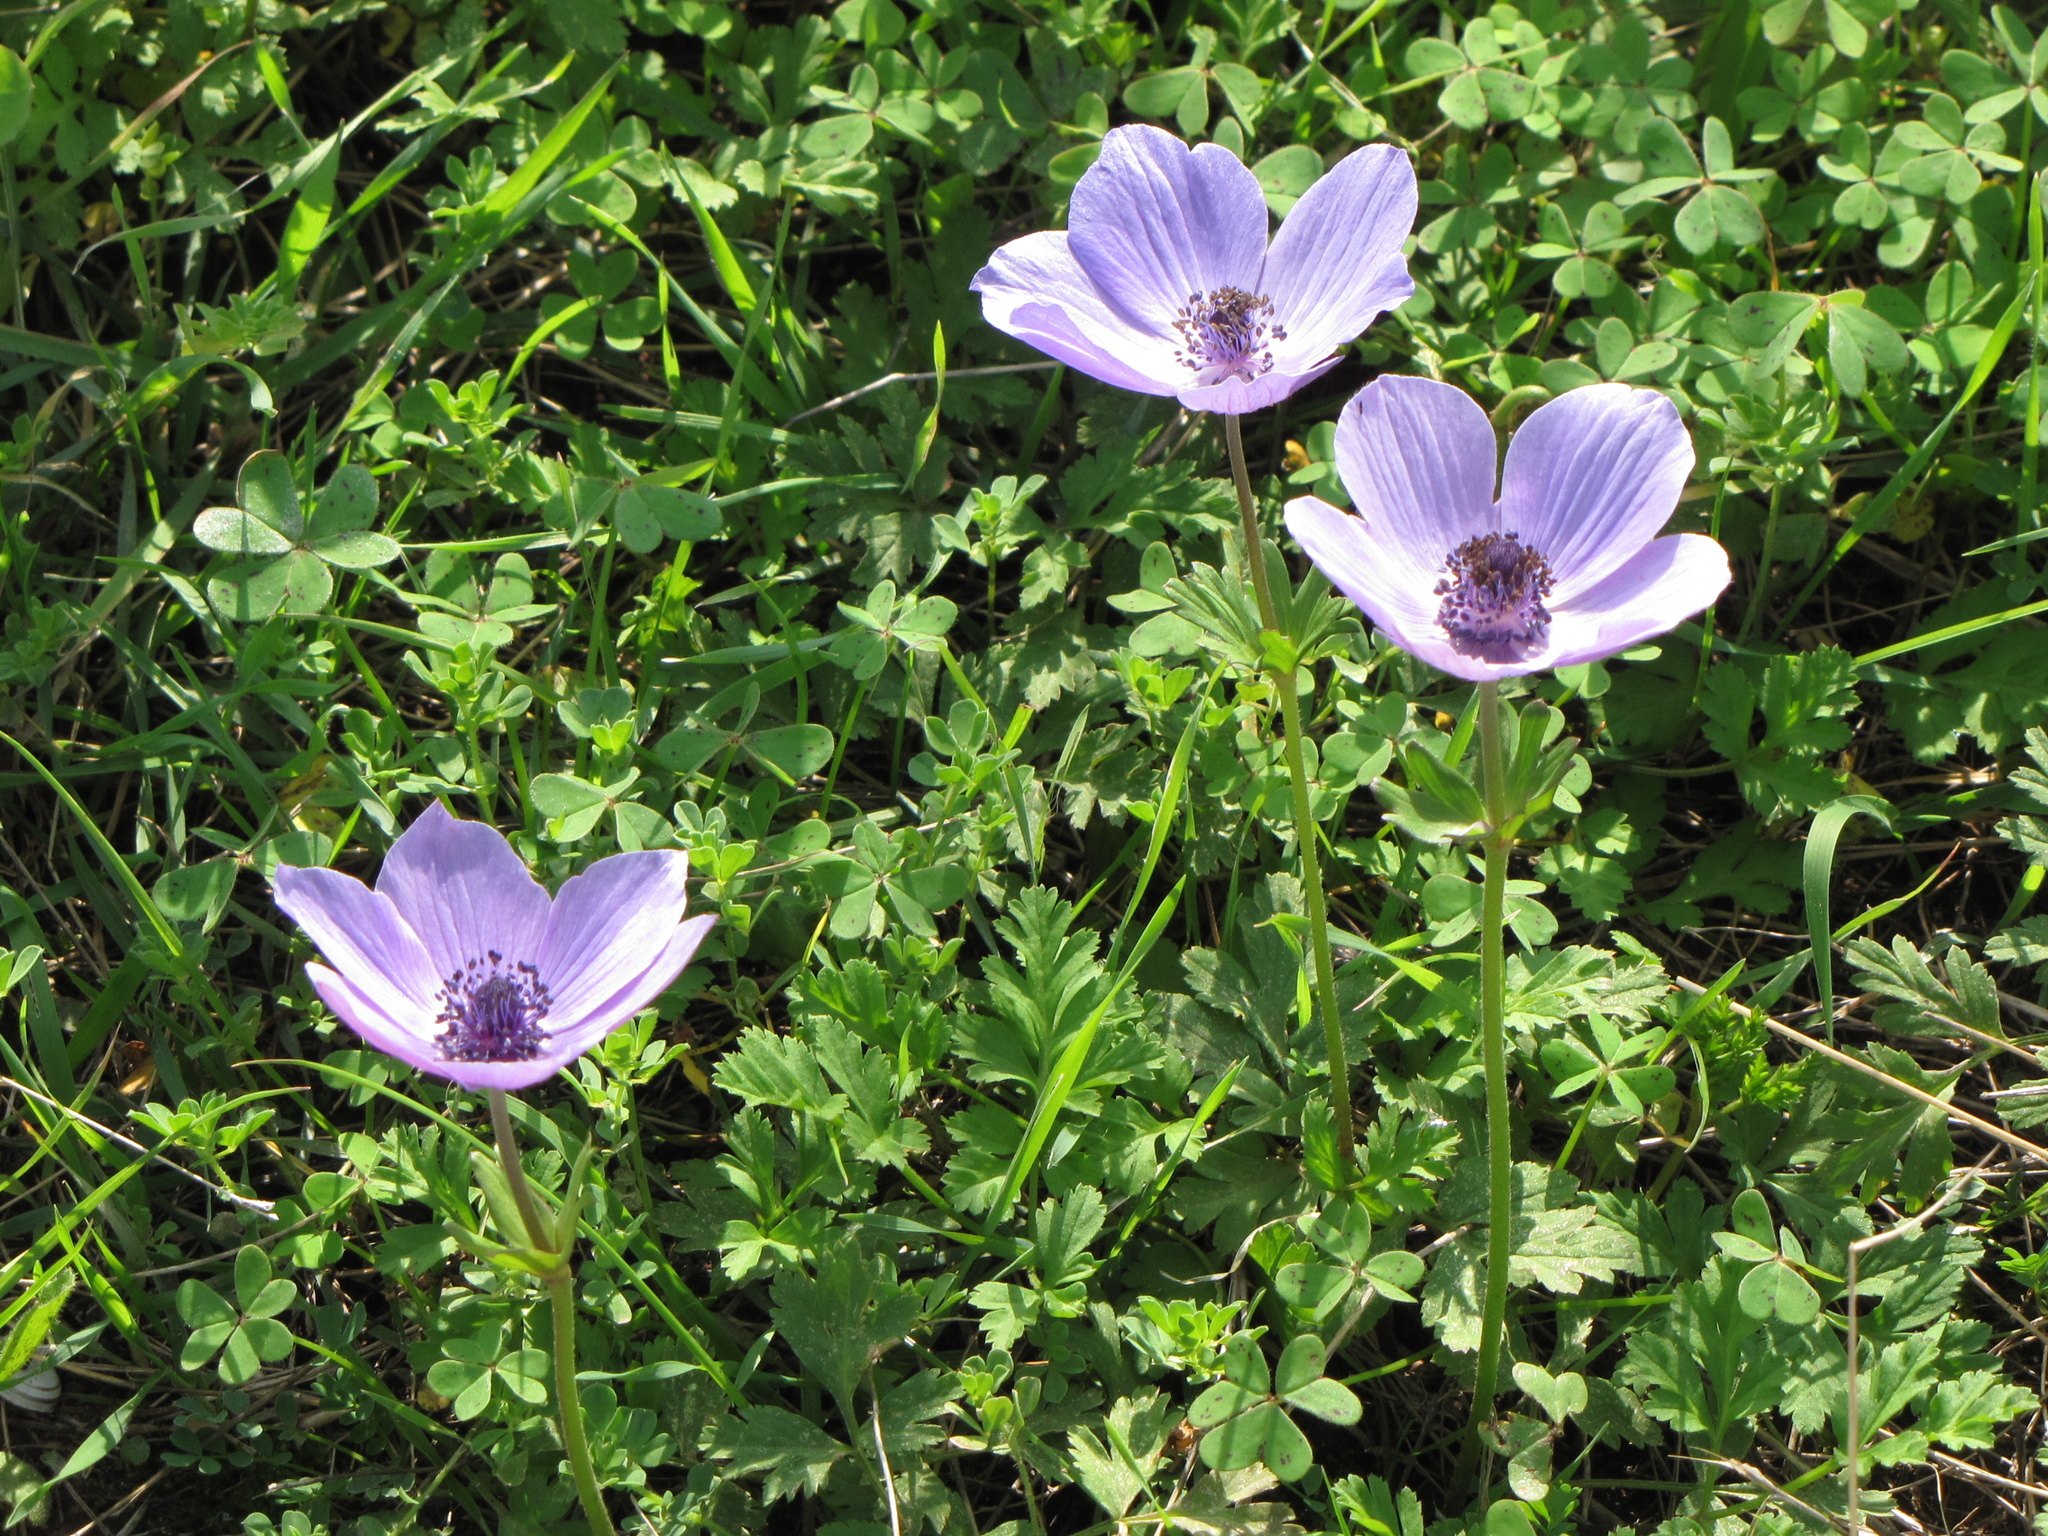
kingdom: Plantae
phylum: Tracheophyta
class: Magnoliopsida
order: Ranunculales
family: Ranunculaceae
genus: Anemone
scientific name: Anemone coronaria
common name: Poppy anemone
